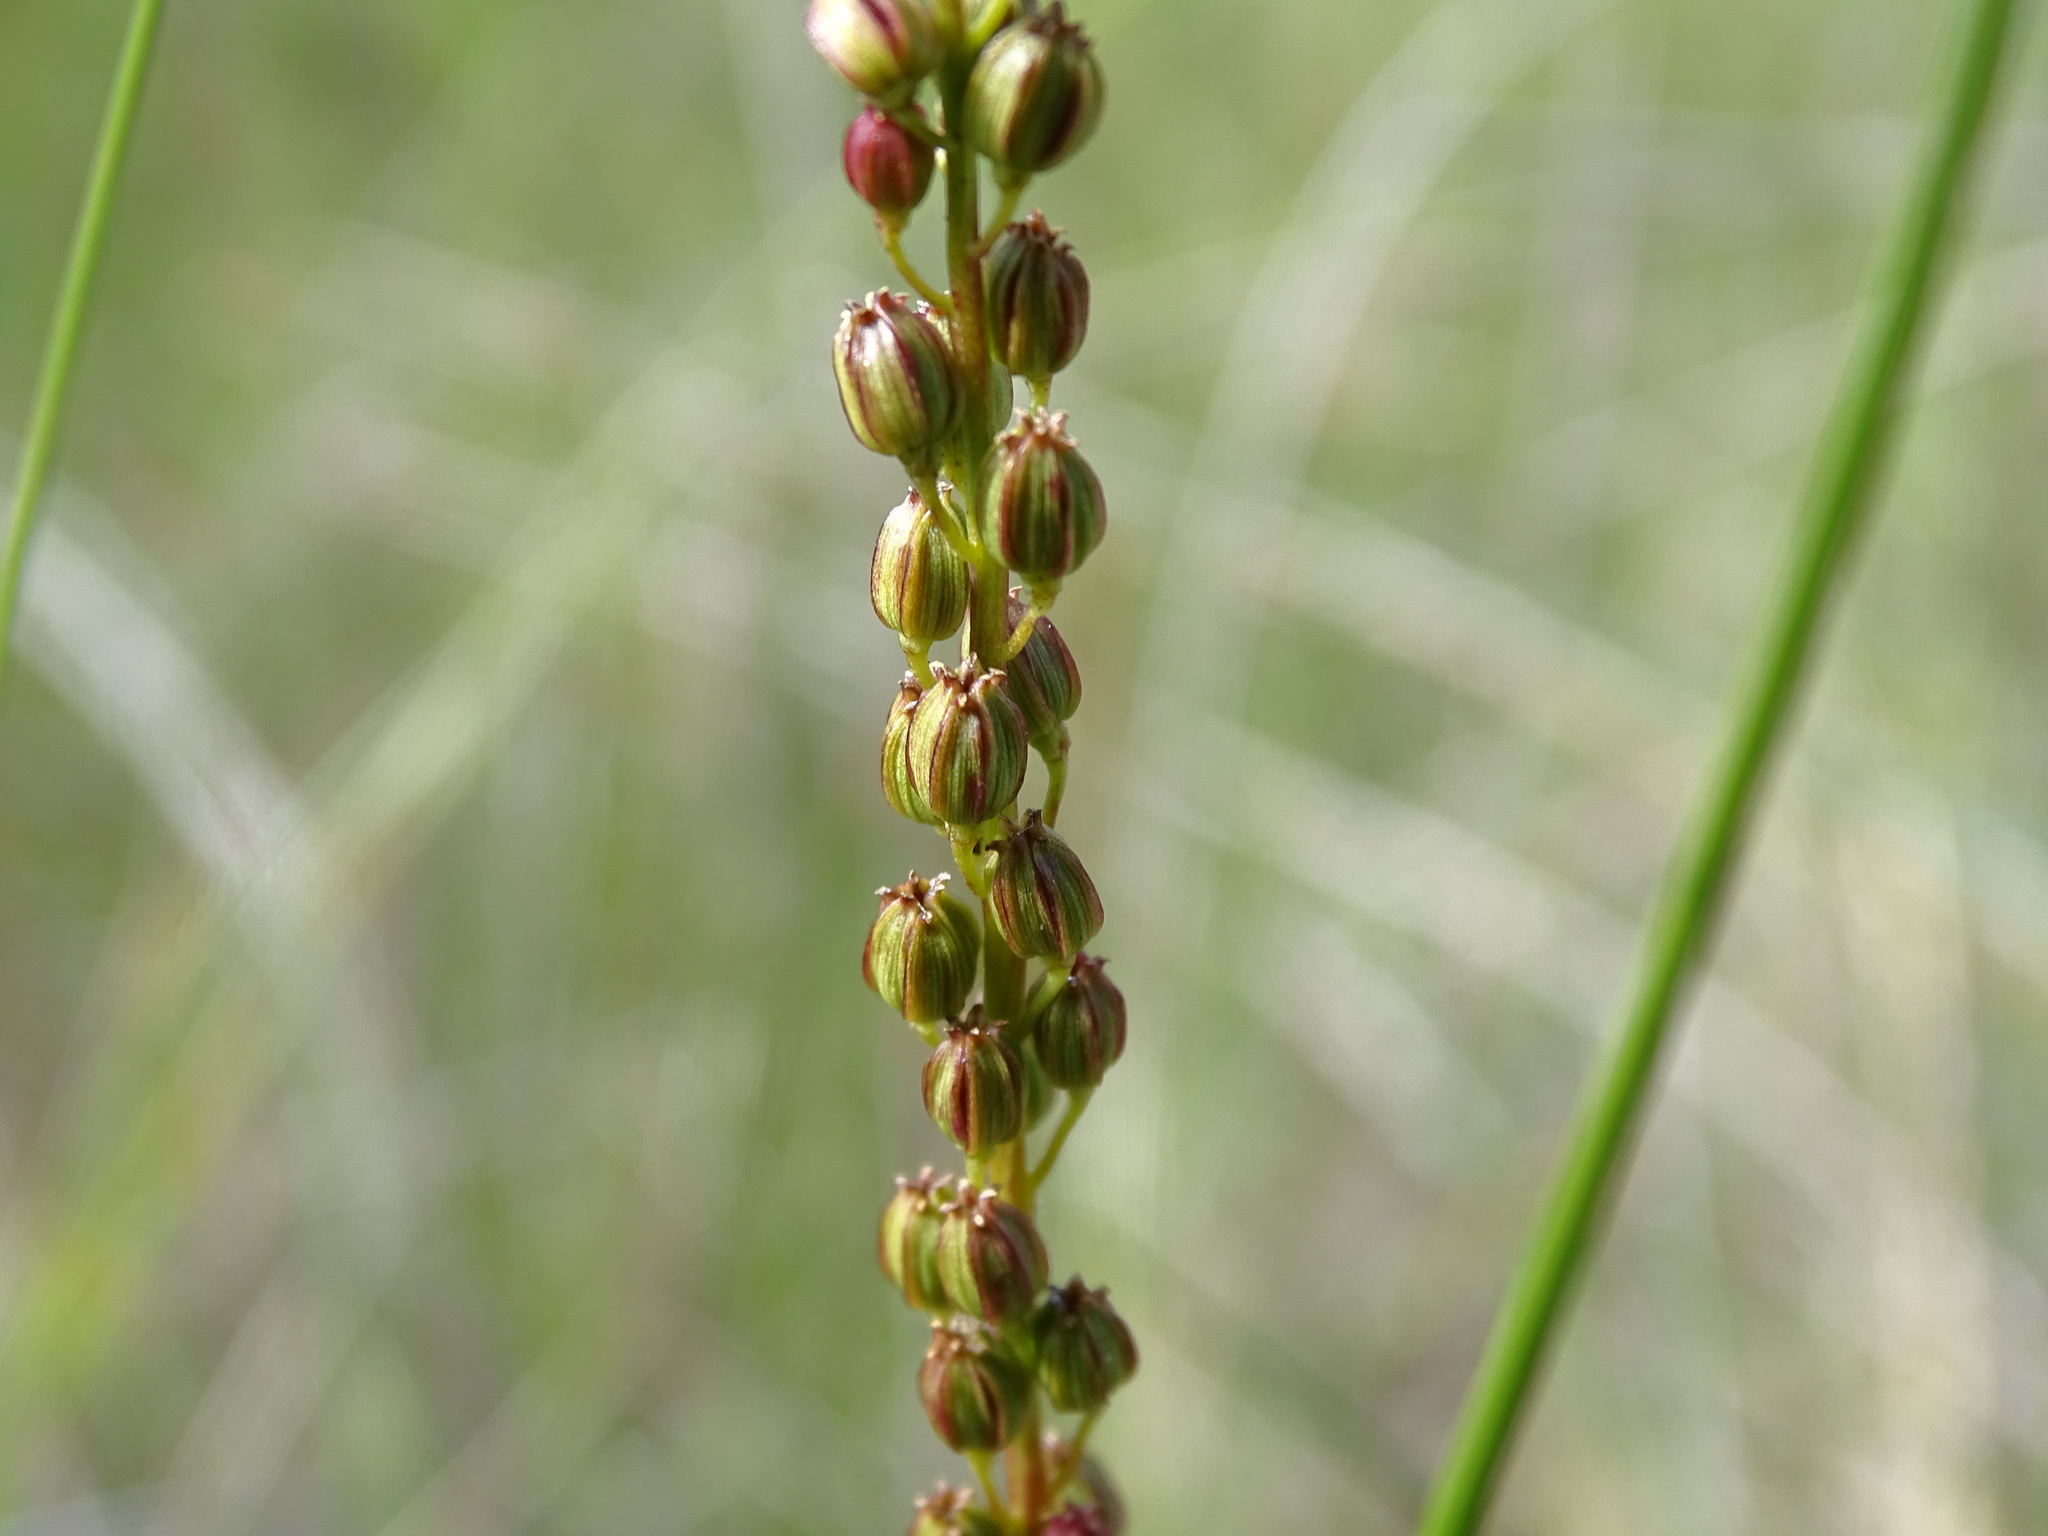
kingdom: Plantae
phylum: Tracheophyta
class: Liliopsida
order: Alismatales
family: Juncaginaceae
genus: Triglochin
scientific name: Triglochin maritima
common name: Sea arrowgrass
